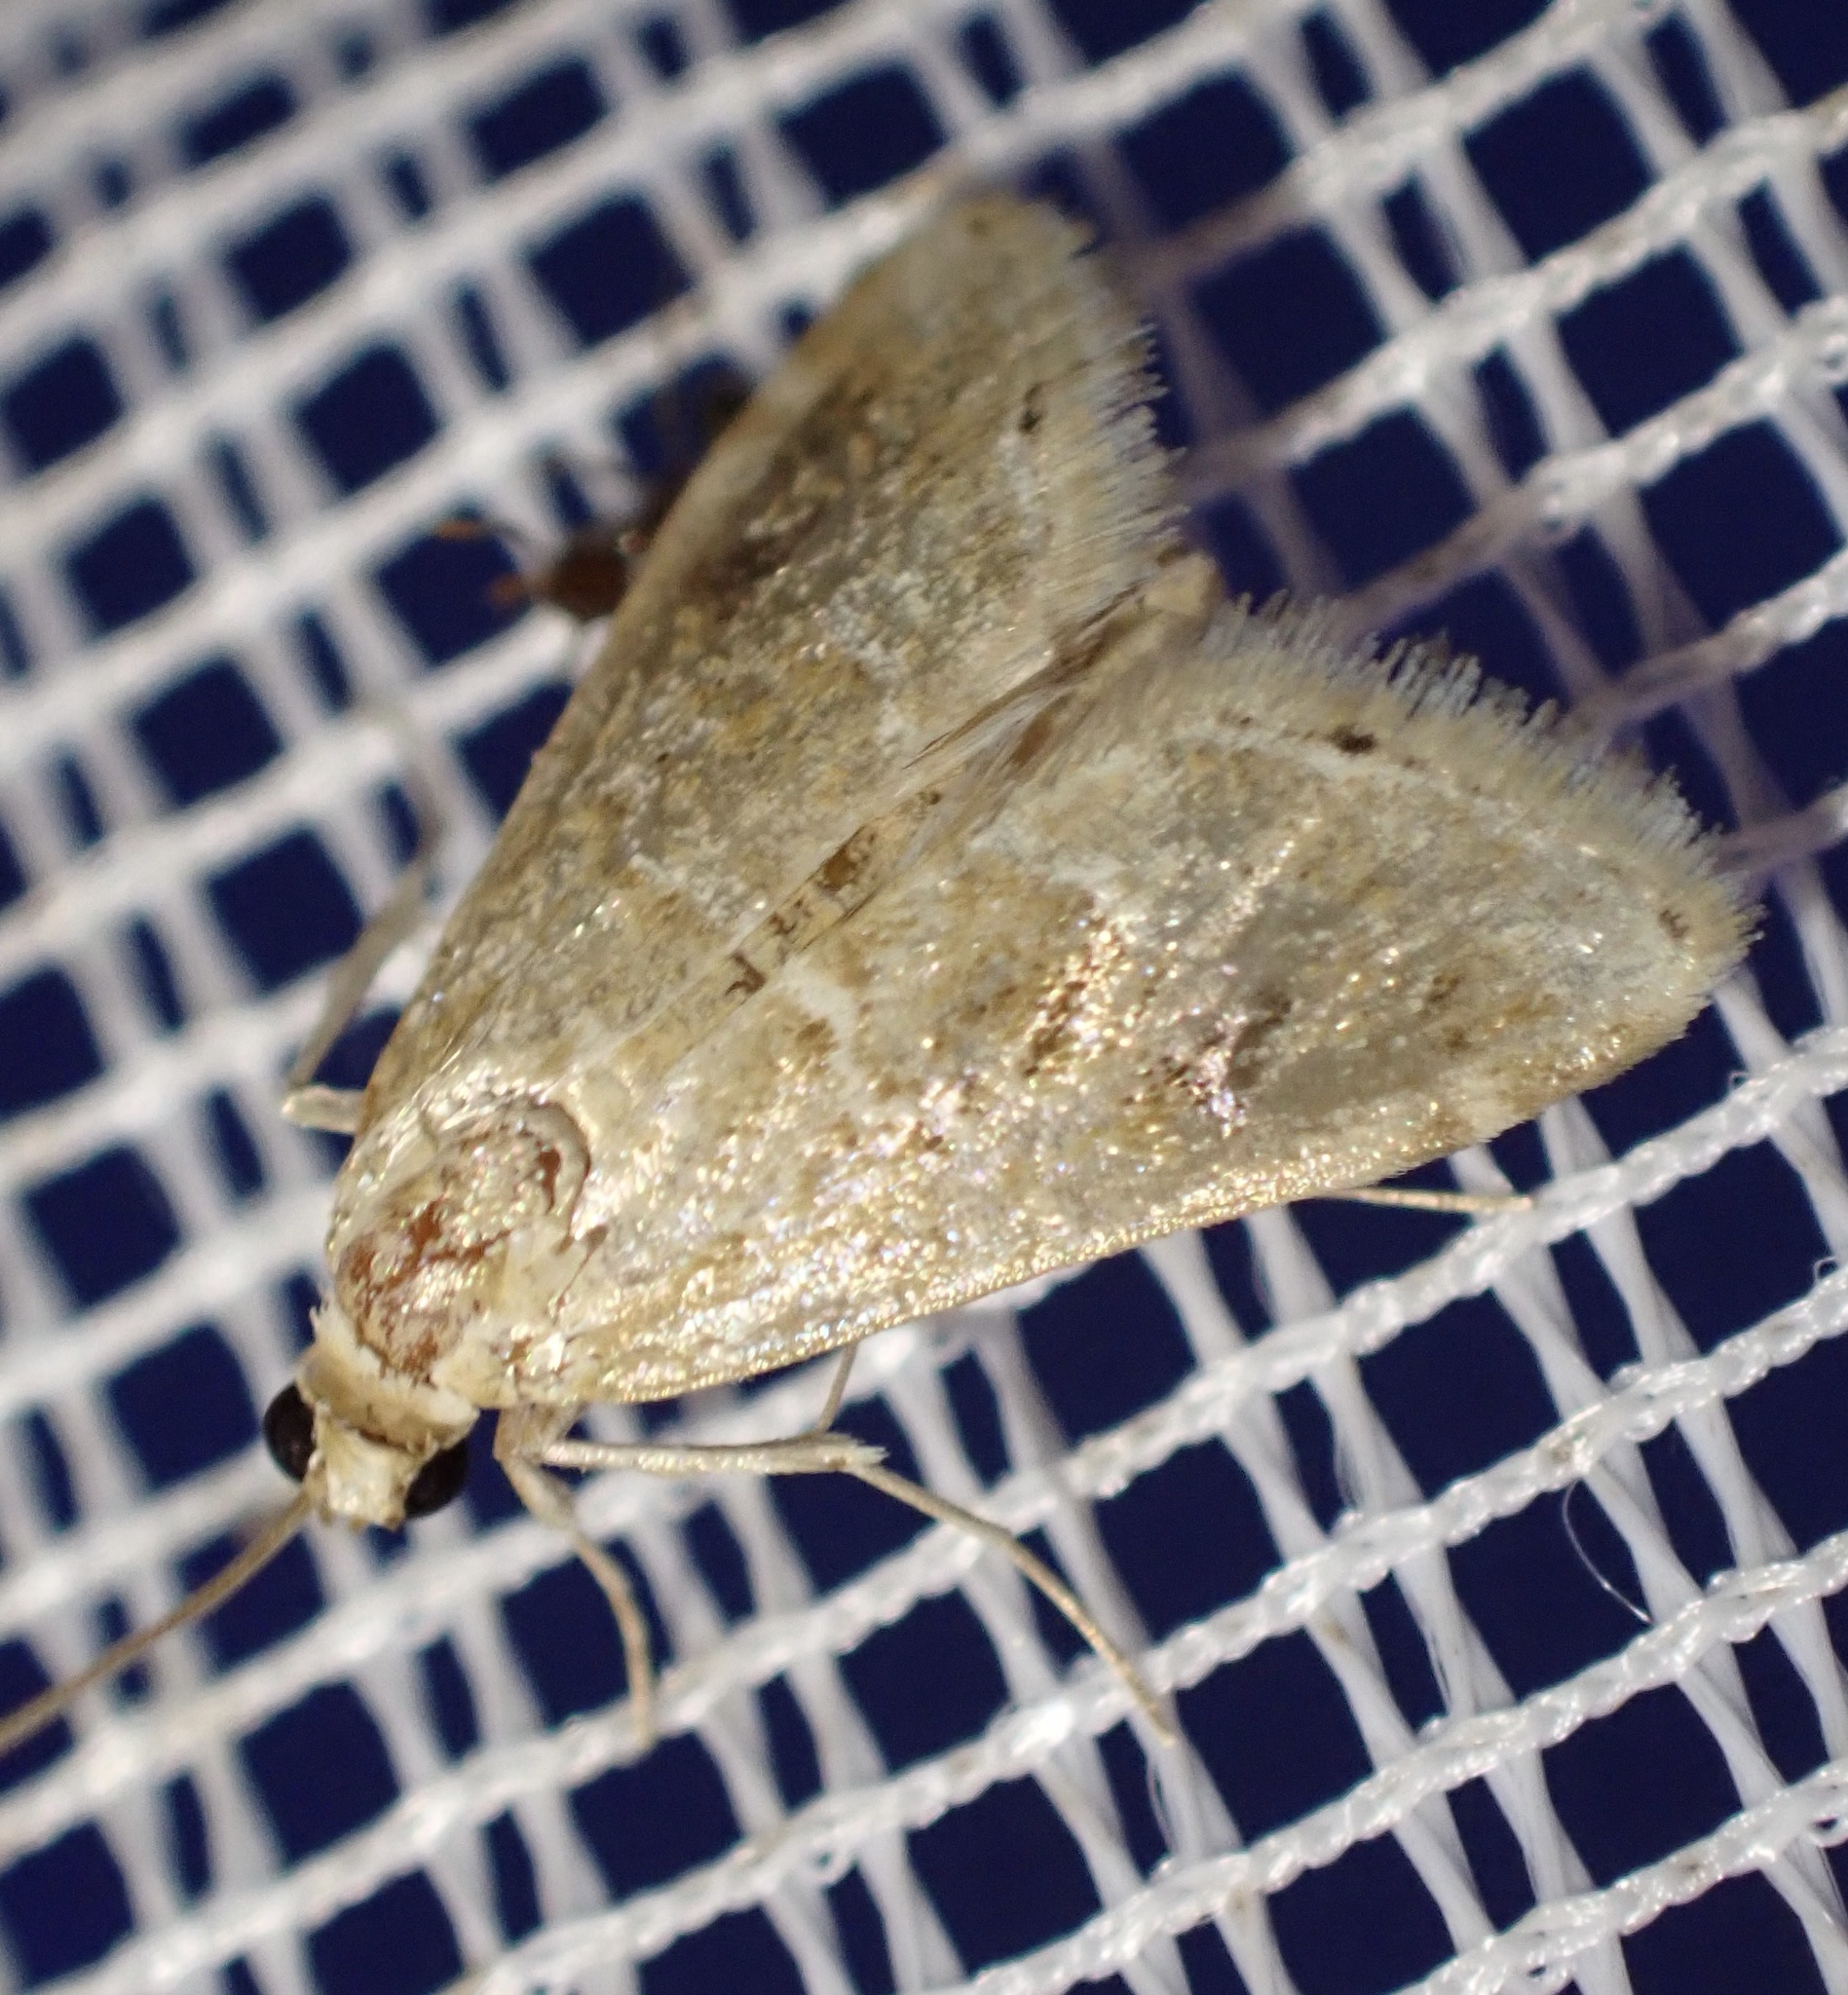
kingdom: Animalia
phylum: Arthropoda
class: Insecta
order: Lepidoptera
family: Crambidae
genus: Hellula
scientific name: Hellula undalis
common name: Cabbage webworm
